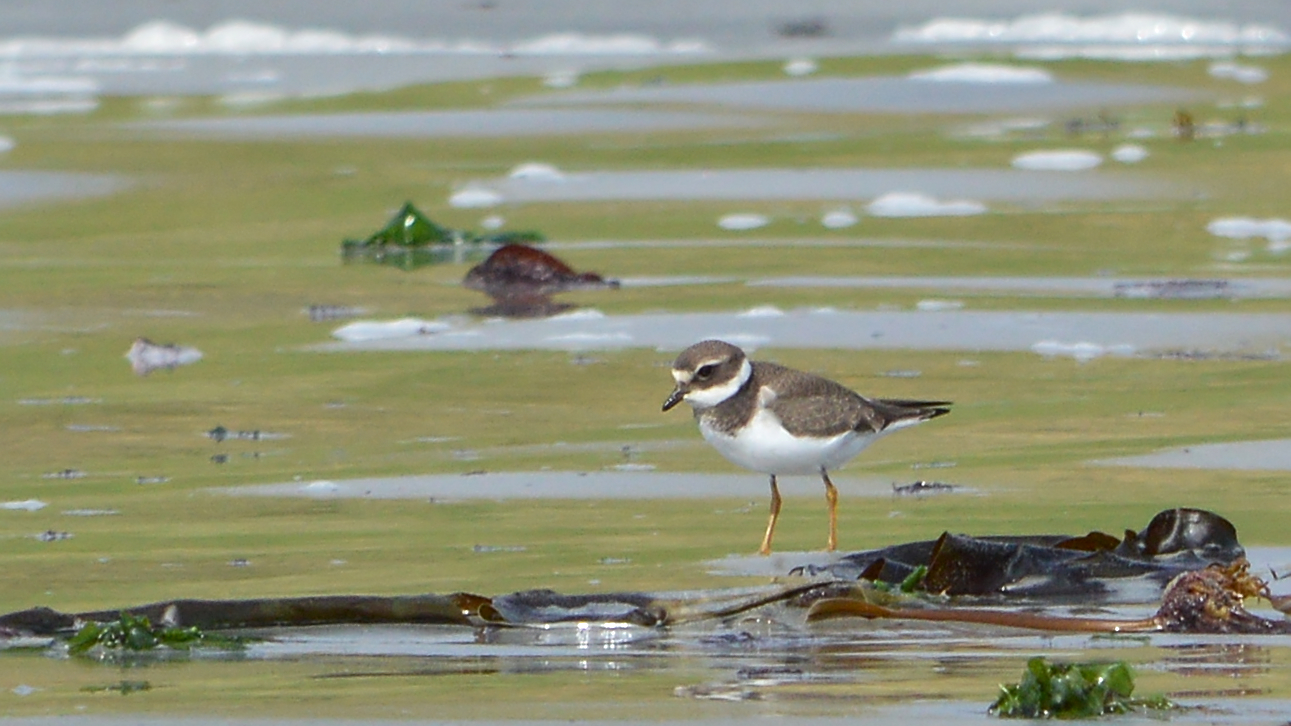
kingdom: Animalia
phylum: Chordata
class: Aves
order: Charadriiformes
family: Charadriidae
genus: Charadrius
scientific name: Charadrius hiaticula
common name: Common ringed plover
